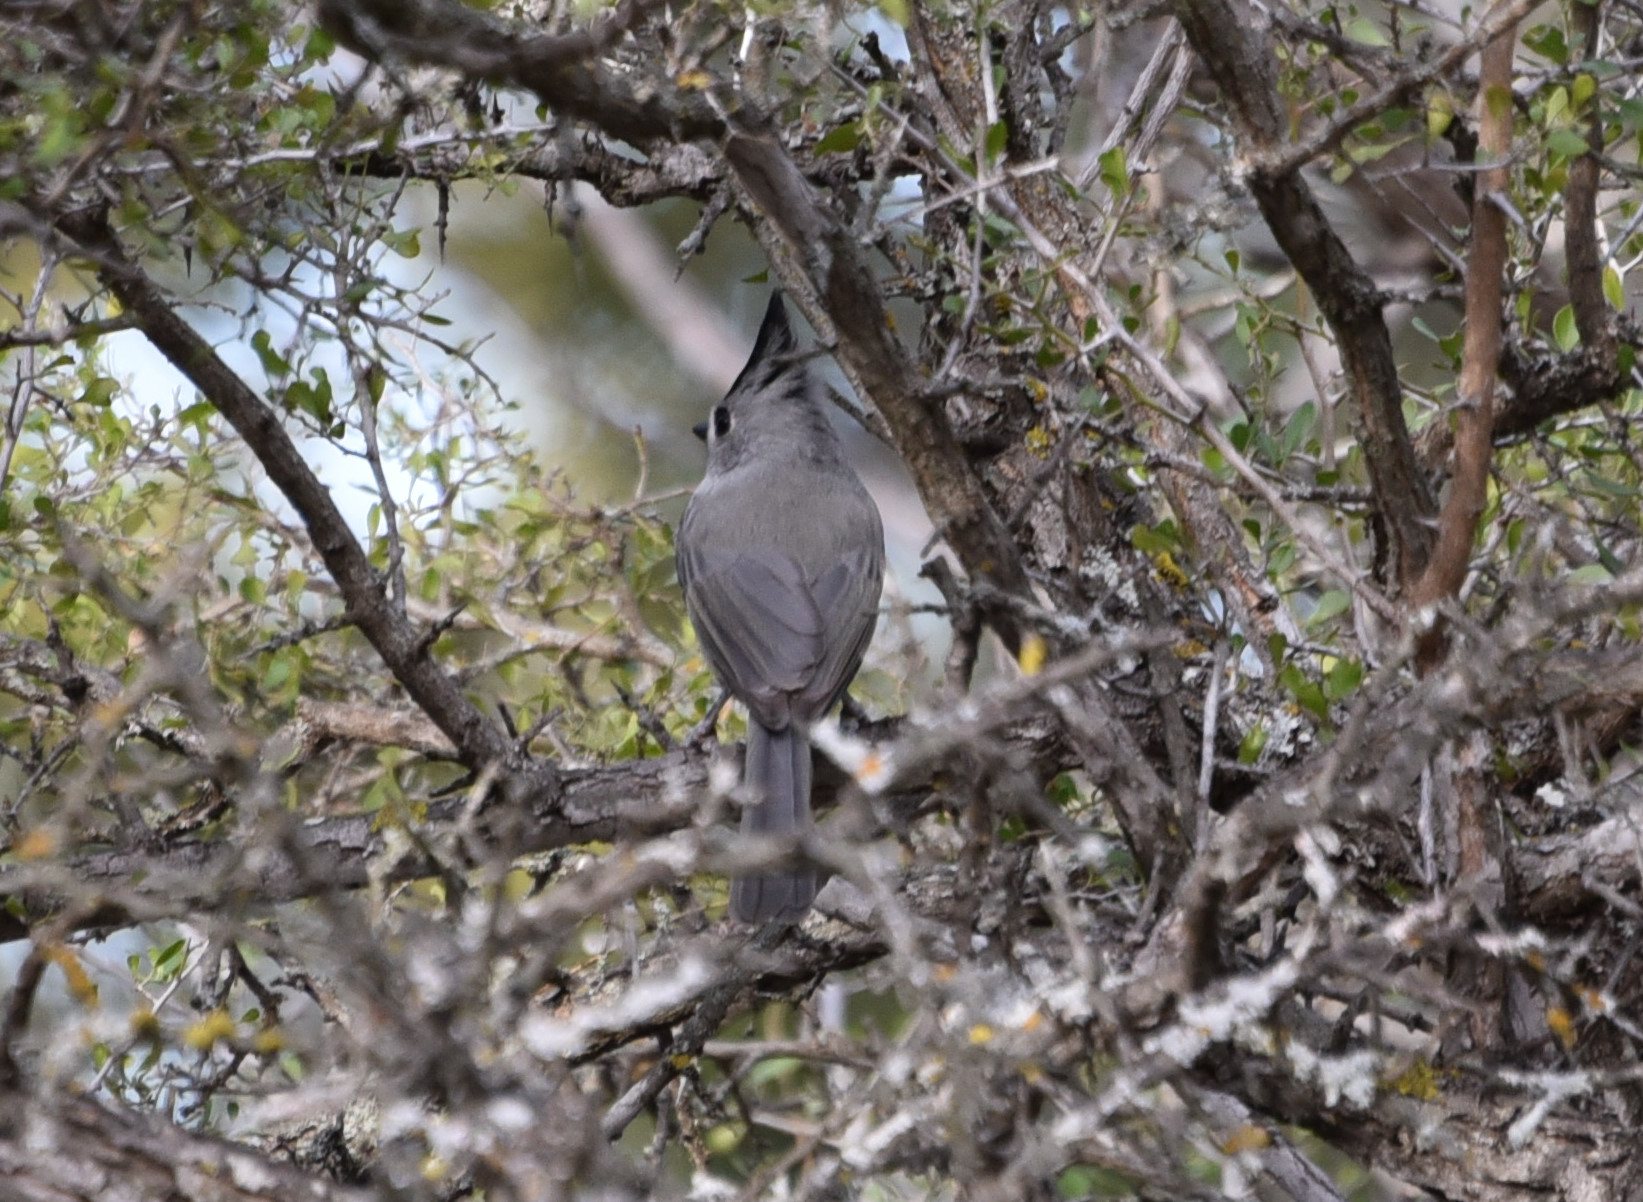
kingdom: Animalia
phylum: Chordata
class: Aves
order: Passeriformes
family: Paridae
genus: Baeolophus
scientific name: Baeolophus atricristatus
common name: Black-crested titmouse
